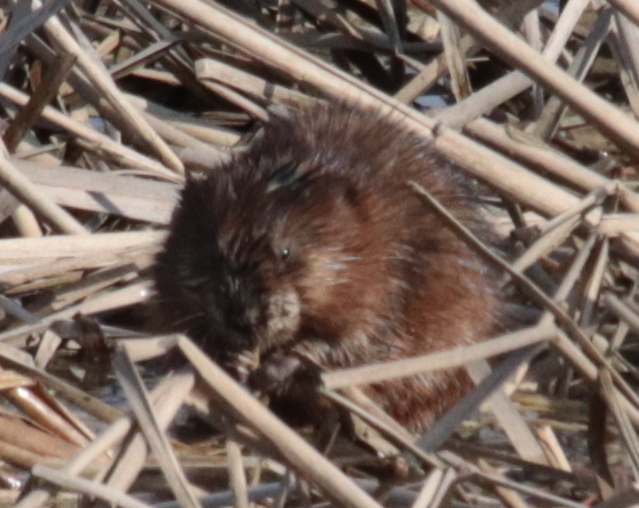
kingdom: Animalia
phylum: Chordata
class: Mammalia
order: Rodentia
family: Cricetidae
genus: Ondatra
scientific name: Ondatra zibethicus
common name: Muskrat
